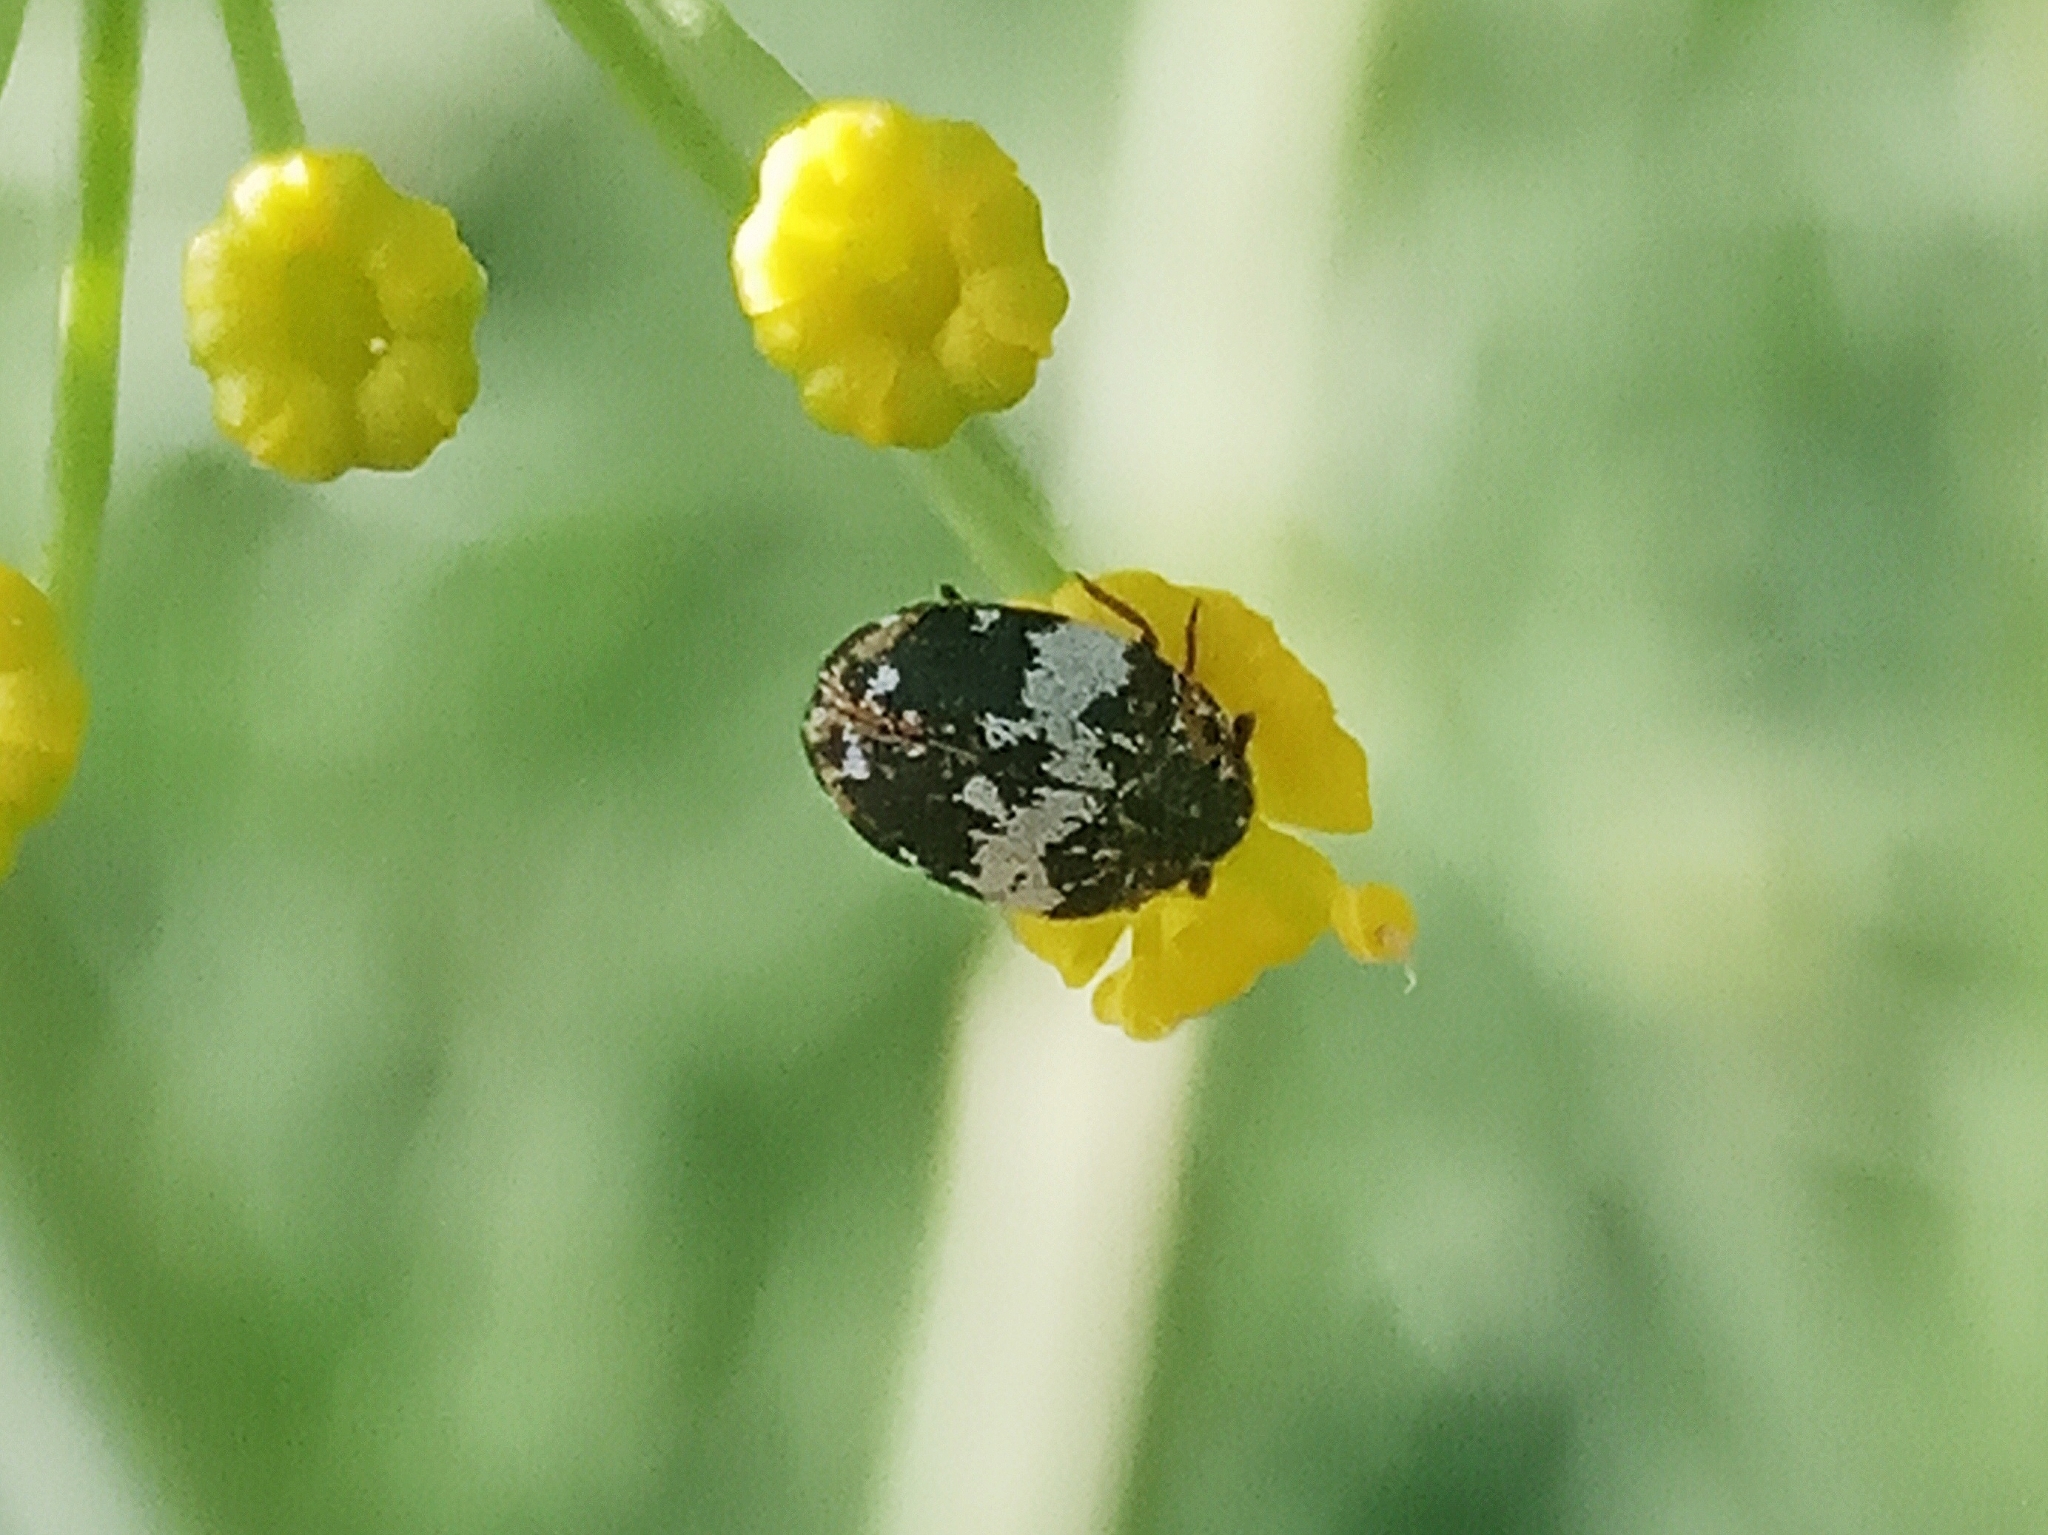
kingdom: Animalia
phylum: Arthropoda
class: Insecta
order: Coleoptera
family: Dermestidae
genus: Anthrenus
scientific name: Anthrenus pimpinellae
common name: Dermestid beetle
